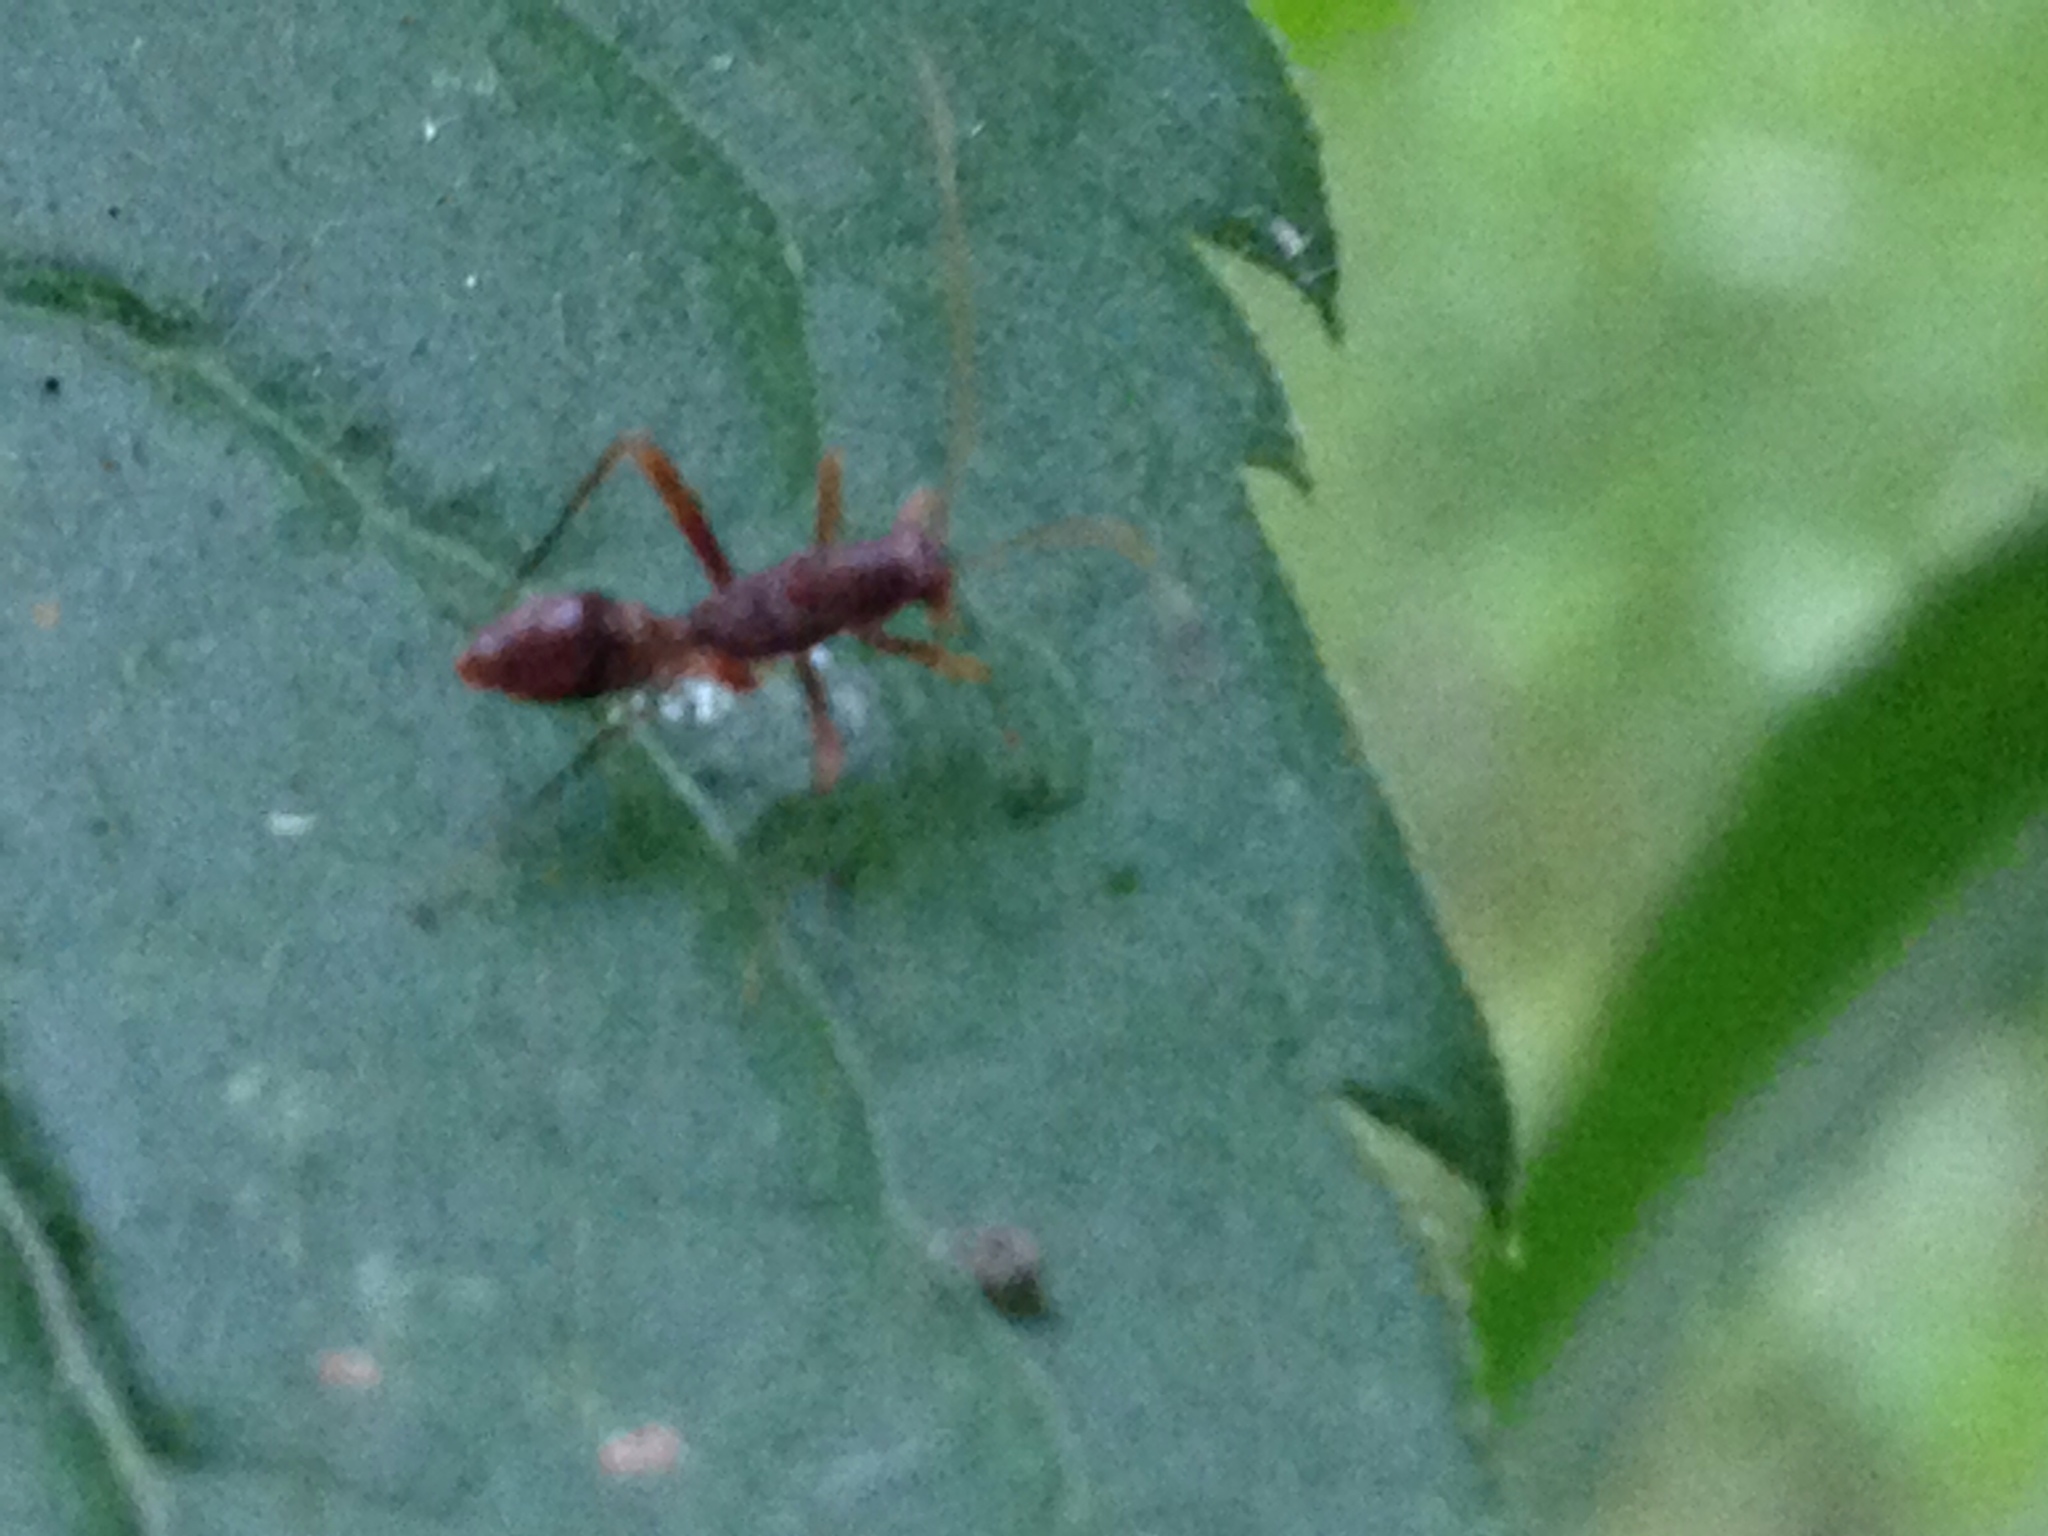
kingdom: Animalia
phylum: Arthropoda
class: Insecta
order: Hemiptera
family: Miridae
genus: Paraxenetus
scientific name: Paraxenetus guttulatus
